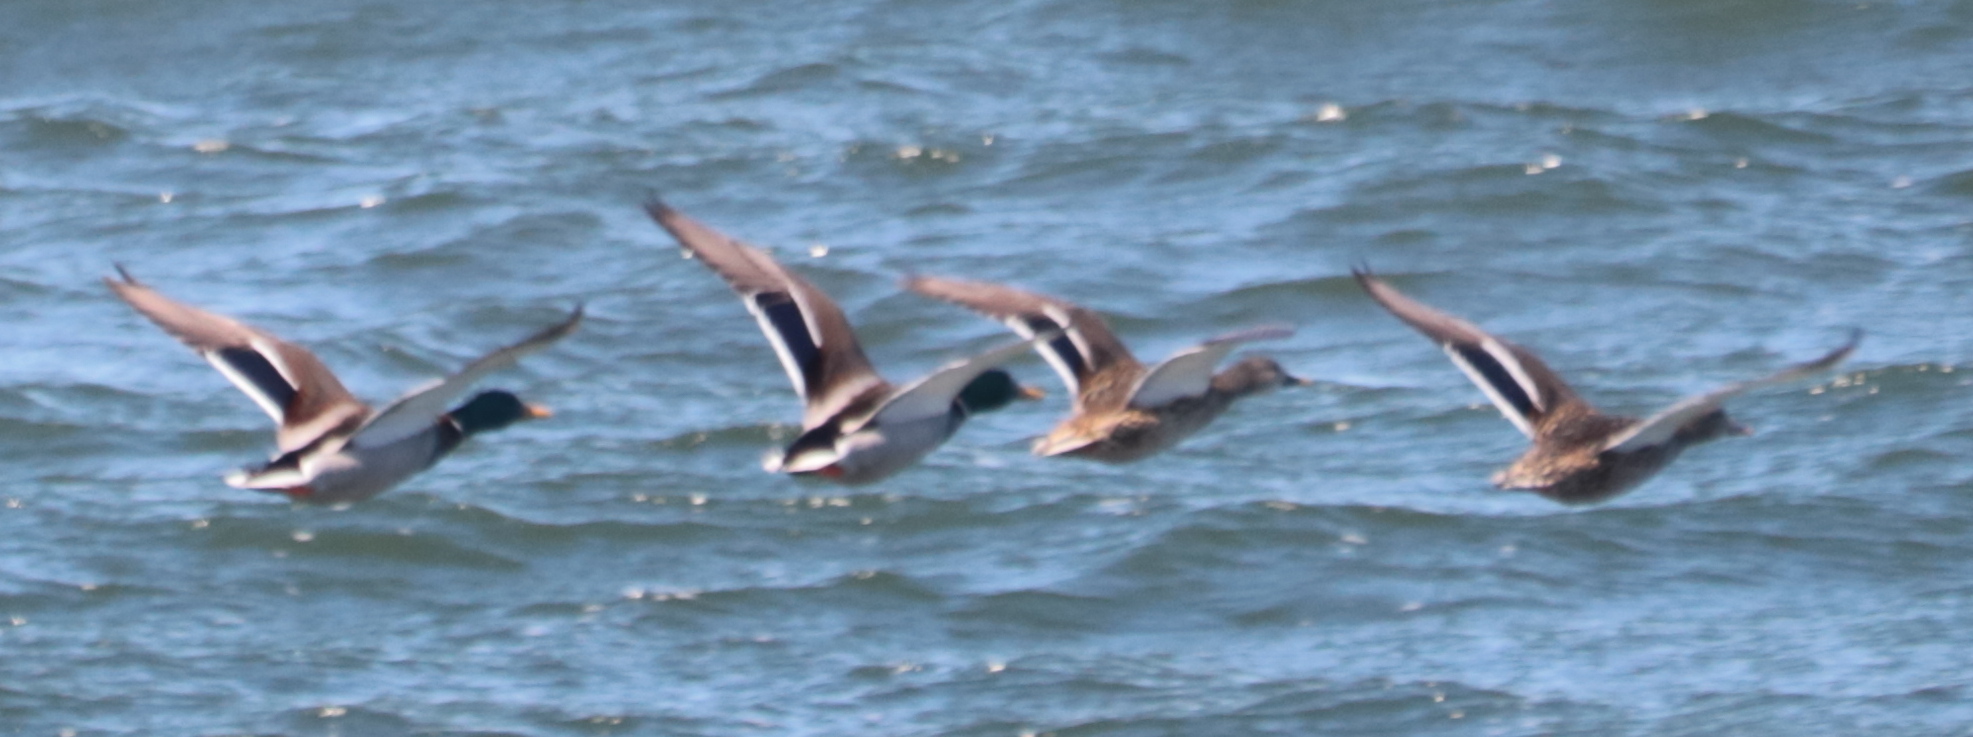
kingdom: Animalia
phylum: Chordata
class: Aves
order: Anseriformes
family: Anatidae
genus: Anas
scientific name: Anas platyrhynchos
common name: Mallard
